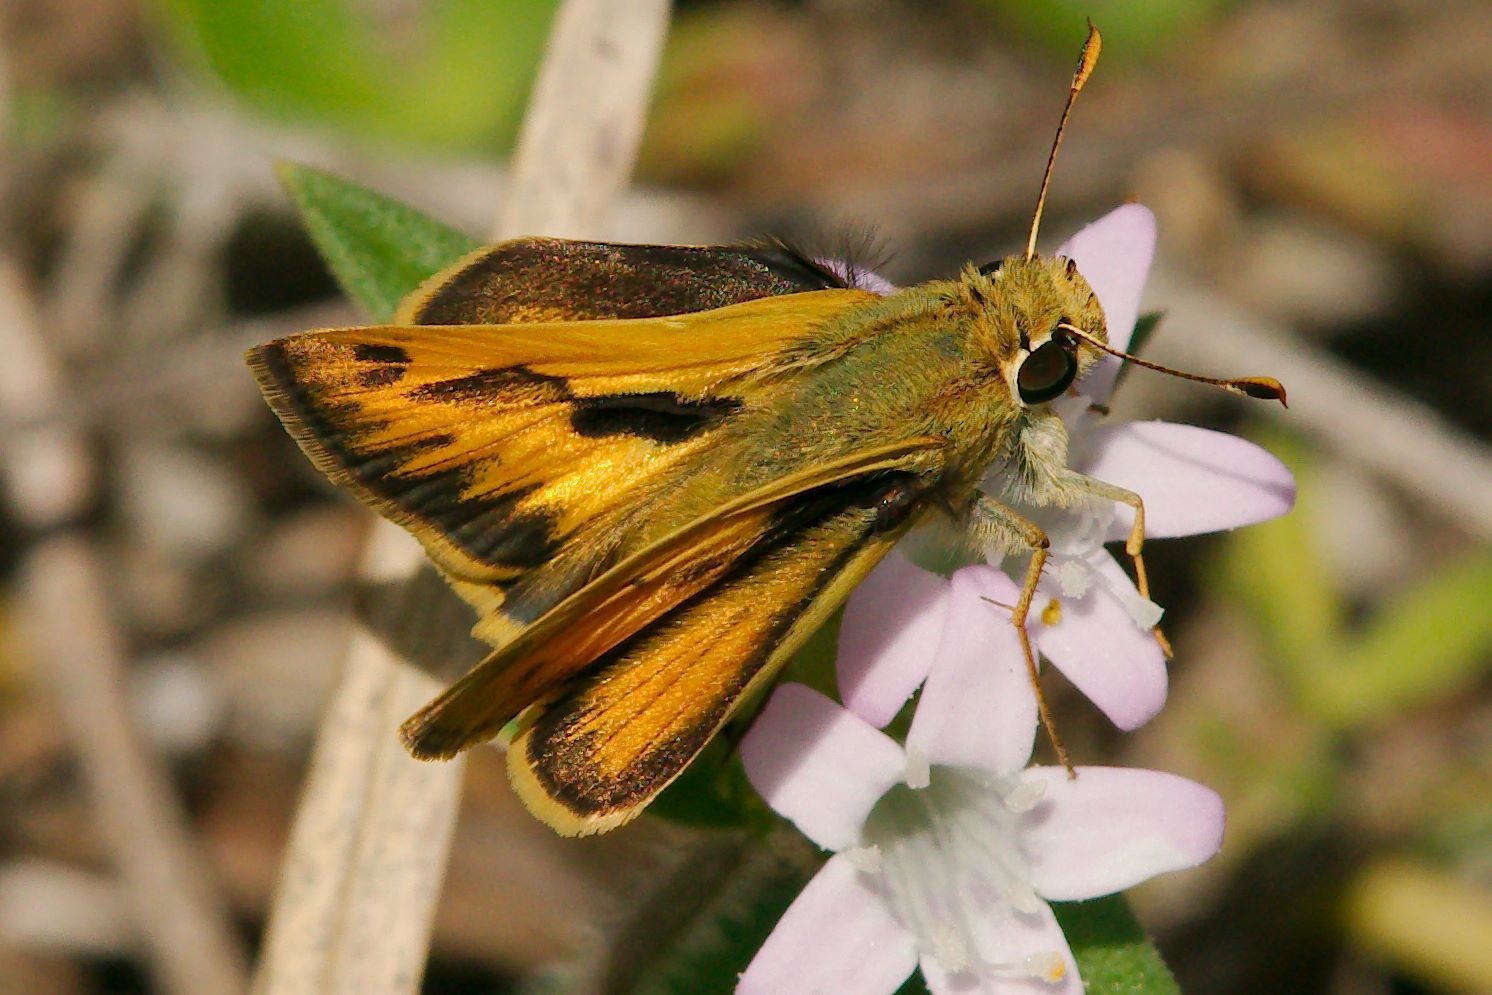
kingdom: Animalia
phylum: Arthropoda
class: Insecta
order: Lepidoptera
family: Hesperiidae
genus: Hylephila
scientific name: Hylephila phyleus
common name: Fiery skipper
